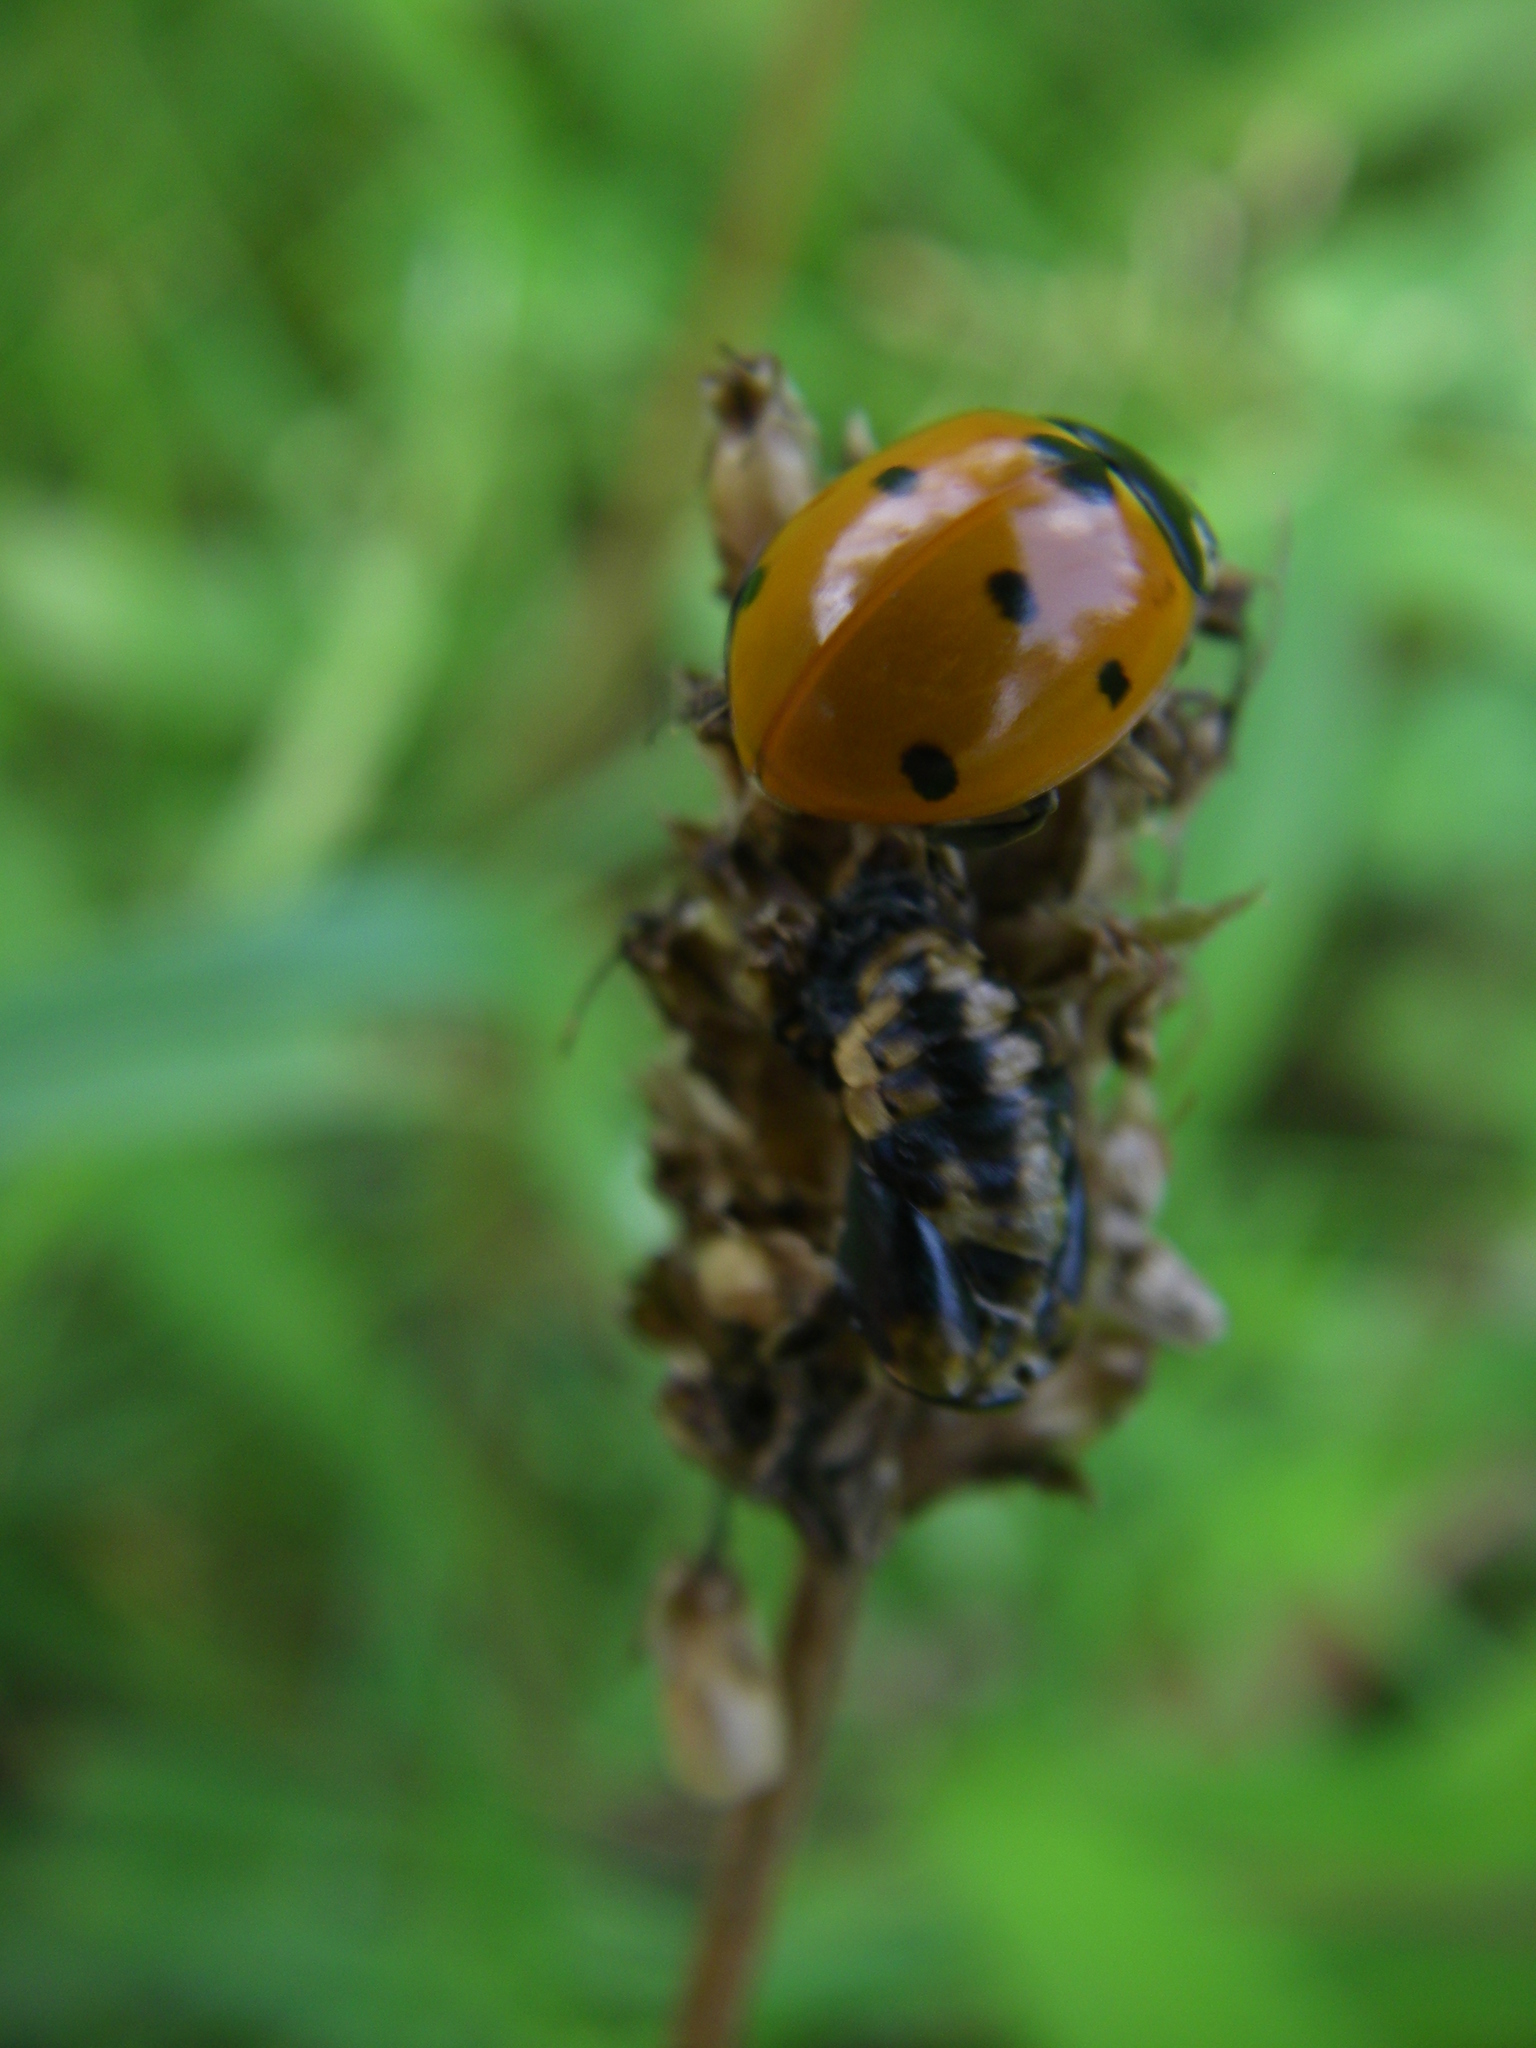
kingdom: Animalia
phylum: Arthropoda
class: Insecta
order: Coleoptera
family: Coccinellidae
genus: Coccinella
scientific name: Coccinella septempunctata
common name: Sevenspotted lady beetle
